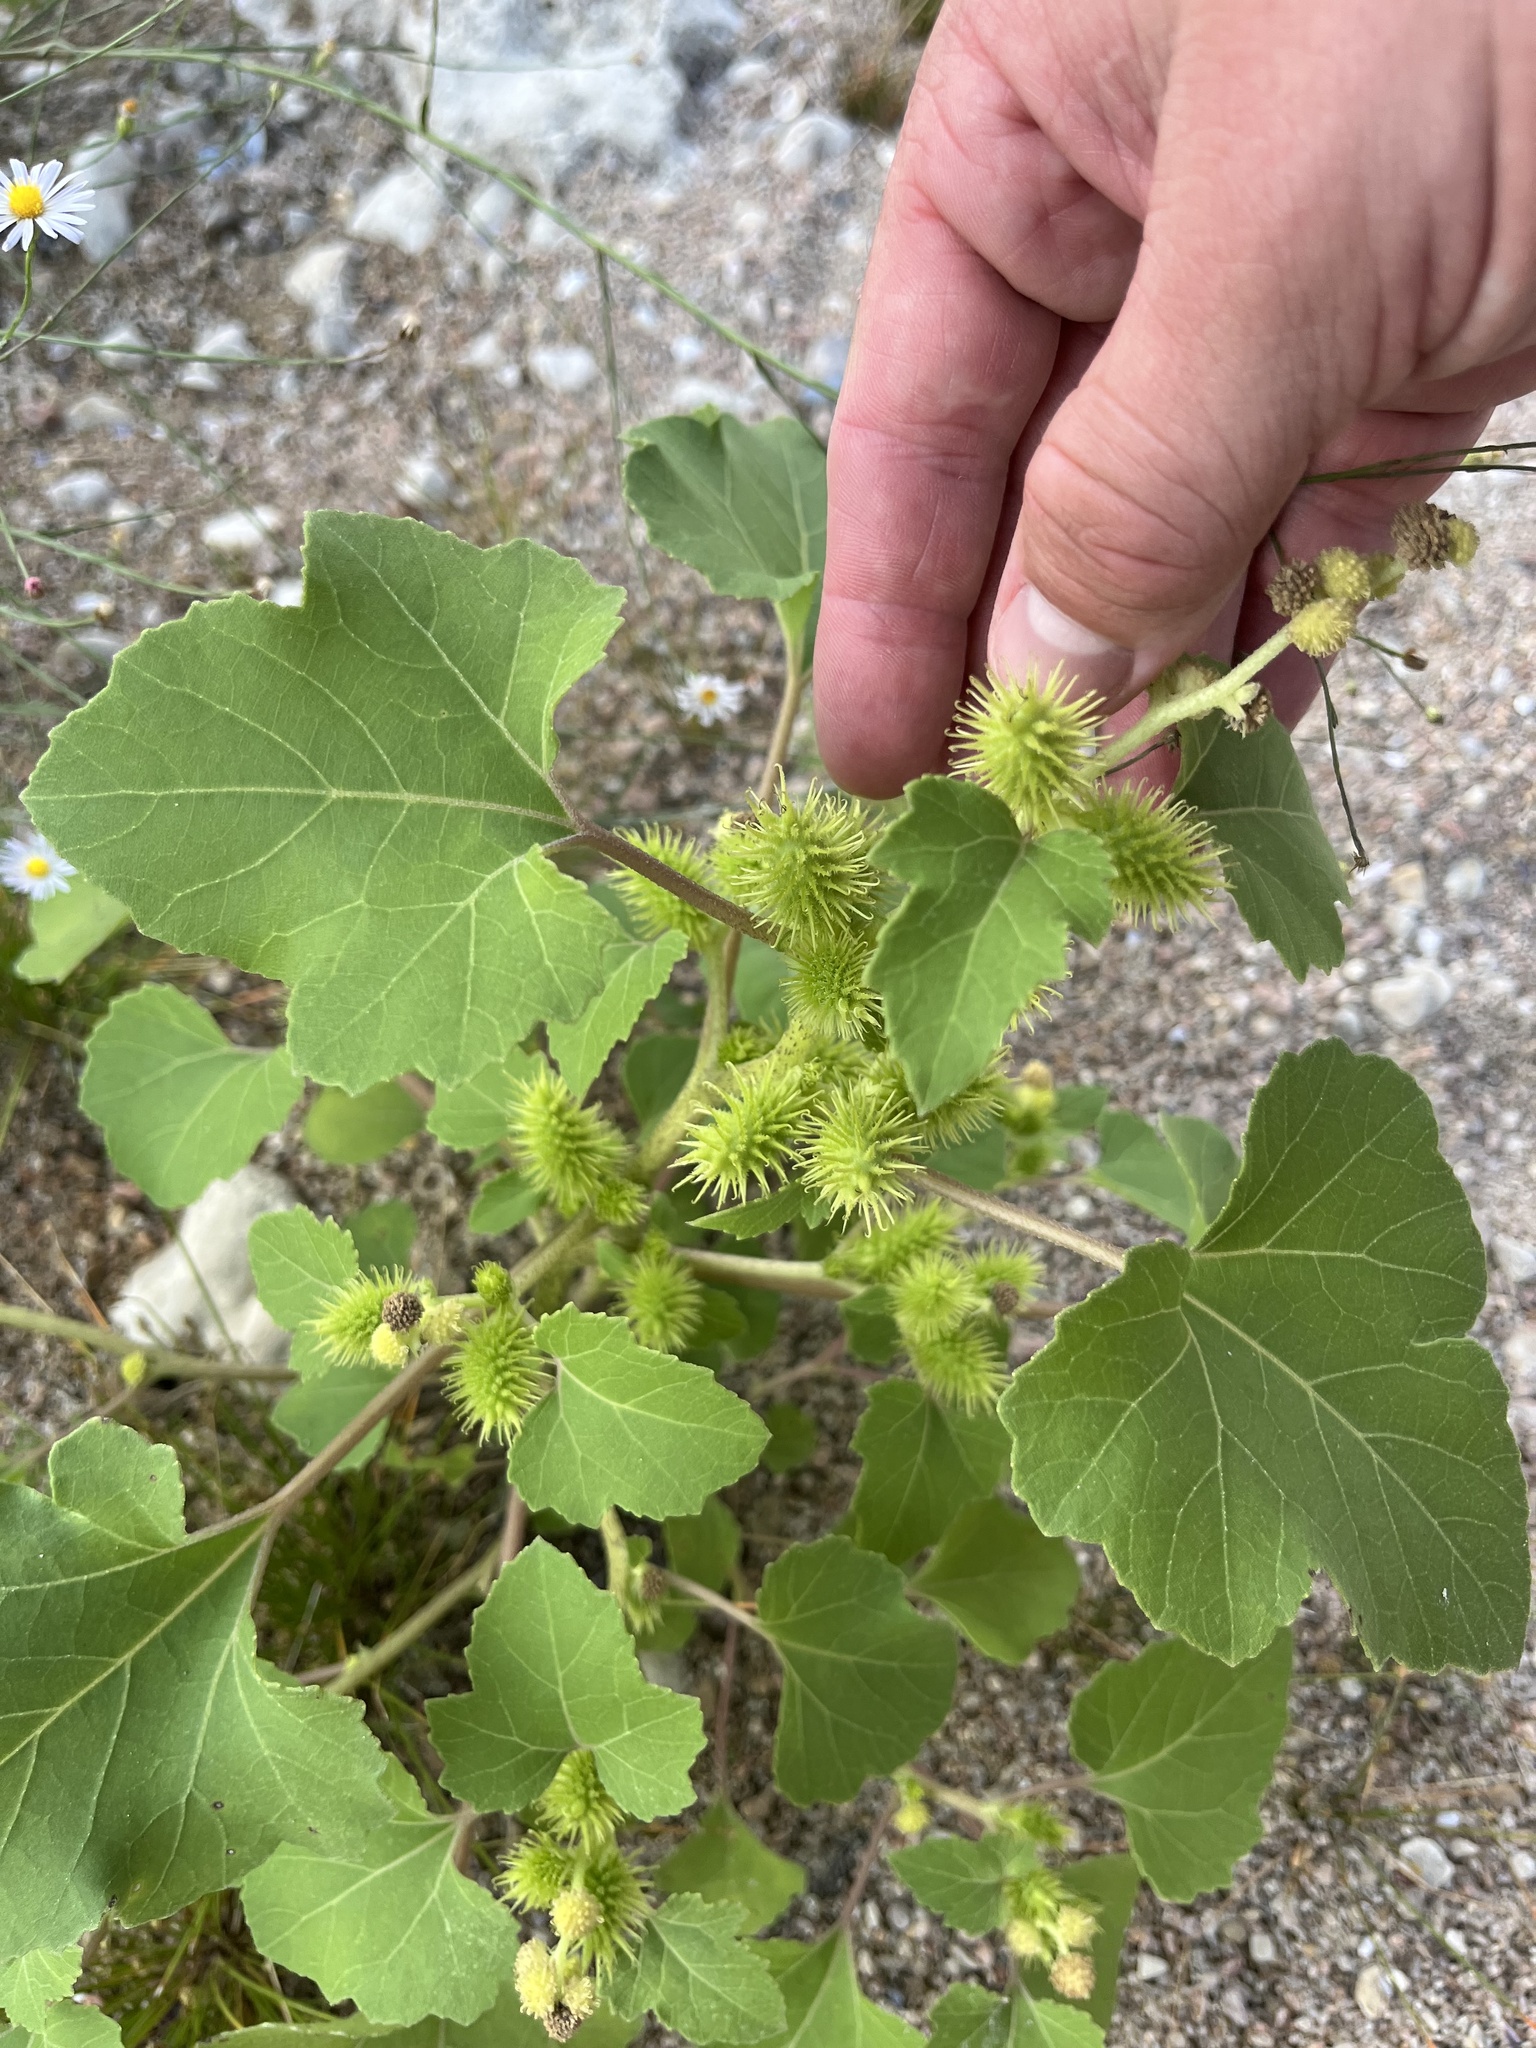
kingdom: Plantae
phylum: Tracheophyta
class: Magnoliopsida
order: Asterales
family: Asteraceae
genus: Xanthium
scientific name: Xanthium strumarium
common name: Rough cocklebur
